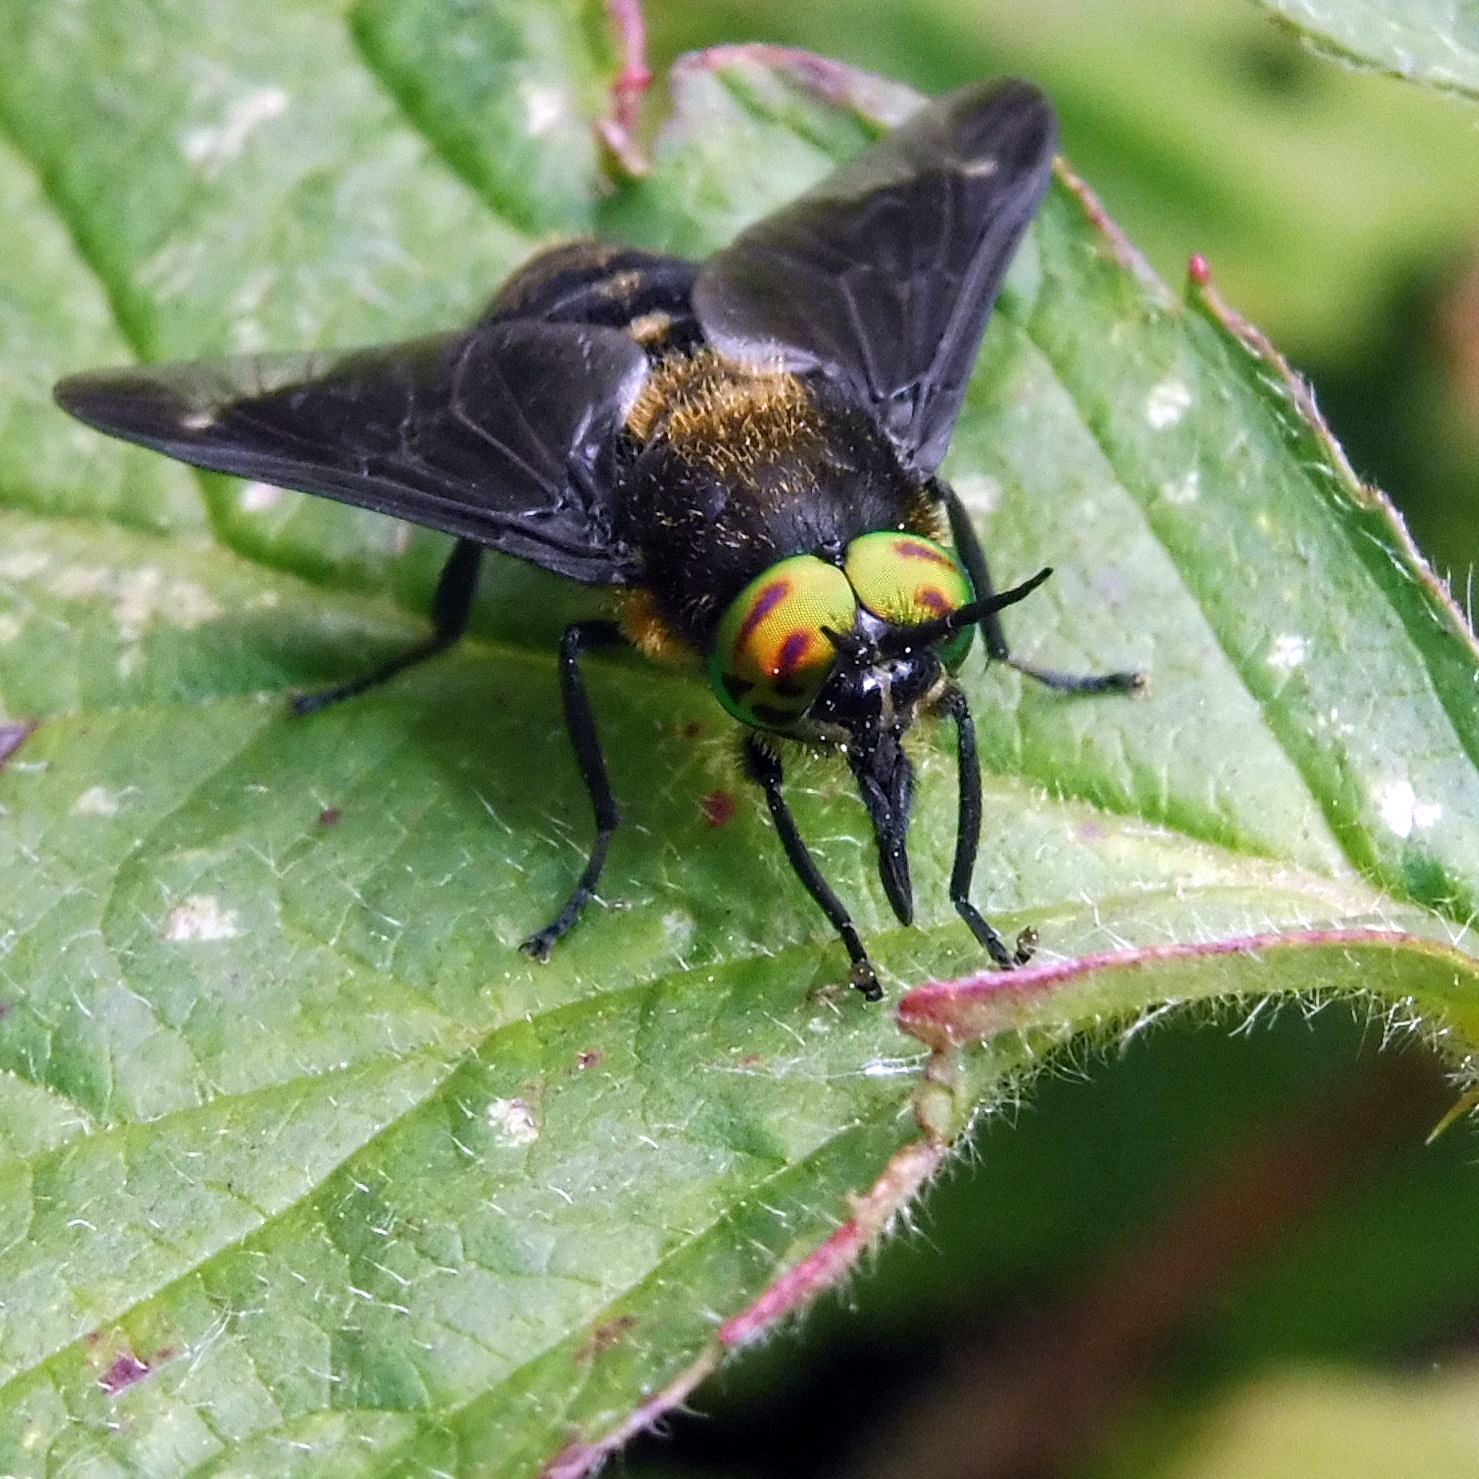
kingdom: Animalia
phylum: Arthropoda
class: Insecta
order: Diptera
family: Tabanidae
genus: Chrysops
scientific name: Chrysops caecutiens
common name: Splayed deerfly
